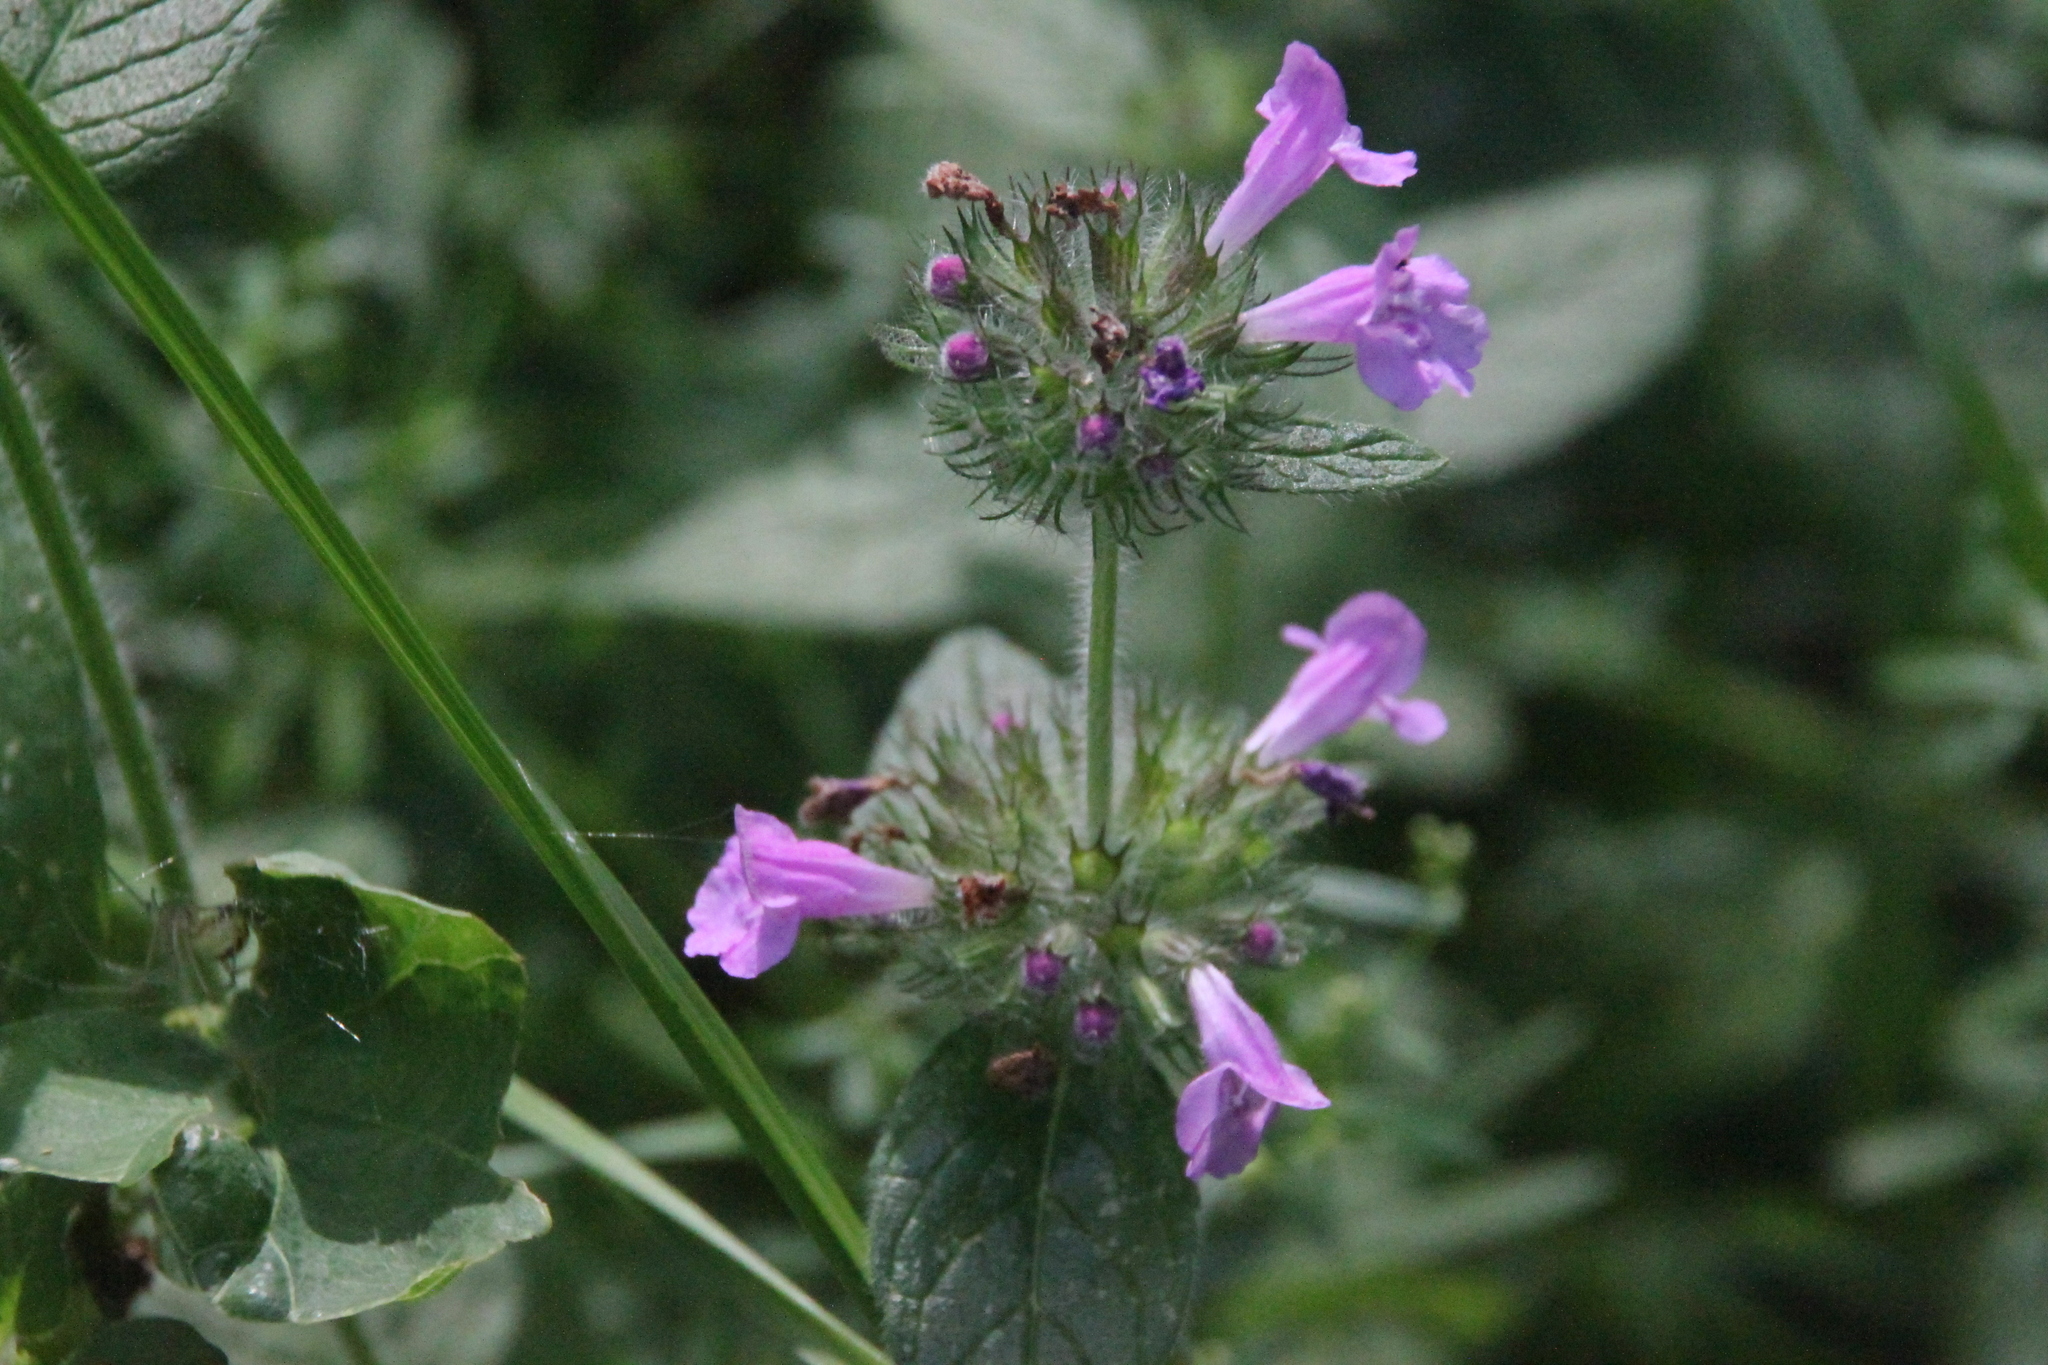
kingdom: Plantae
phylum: Tracheophyta
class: Magnoliopsida
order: Lamiales
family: Lamiaceae
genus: Clinopodium
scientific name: Clinopodium vulgare
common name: Wild basil
